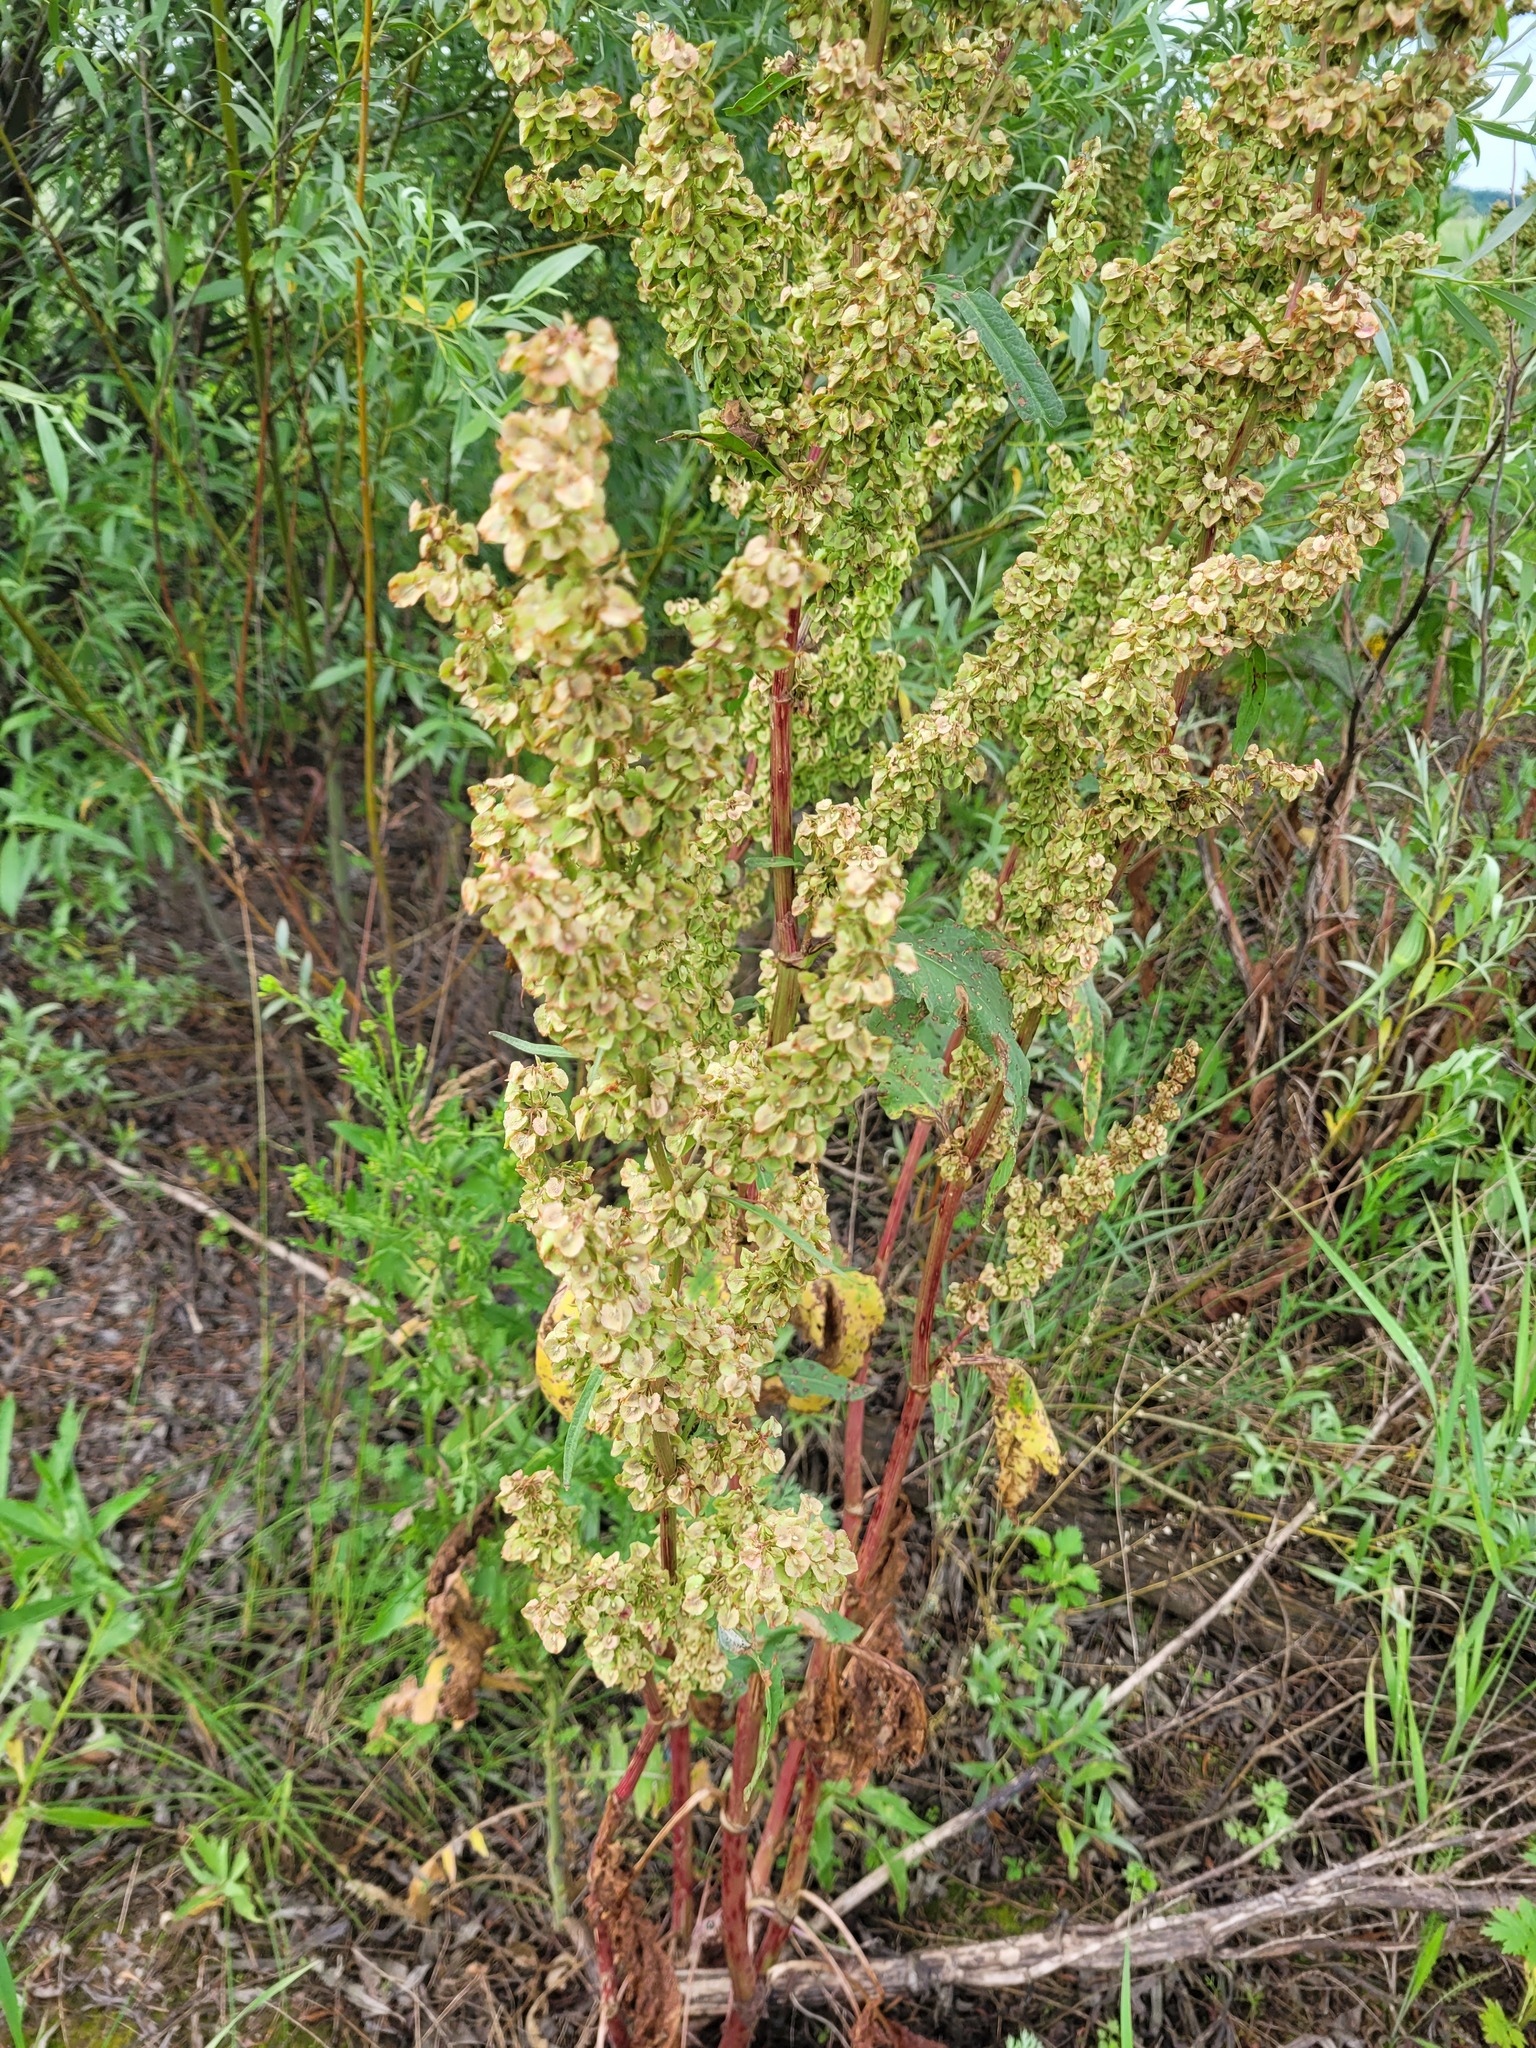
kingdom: Plantae
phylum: Tracheophyta
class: Magnoliopsida
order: Caryophyllales
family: Polygonaceae
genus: Rumex
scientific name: Rumex patientia
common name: Patience dock
